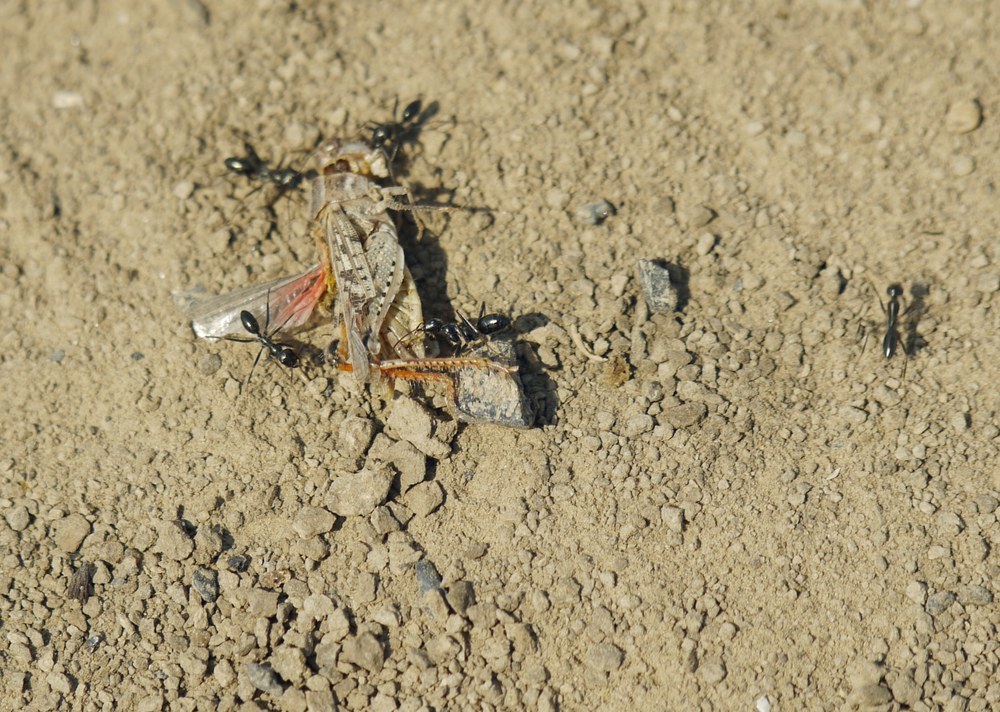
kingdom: Animalia
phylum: Arthropoda
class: Insecta
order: Hymenoptera
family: Formicidae
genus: Cataglyphis
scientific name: Cataglyphis aenescens
